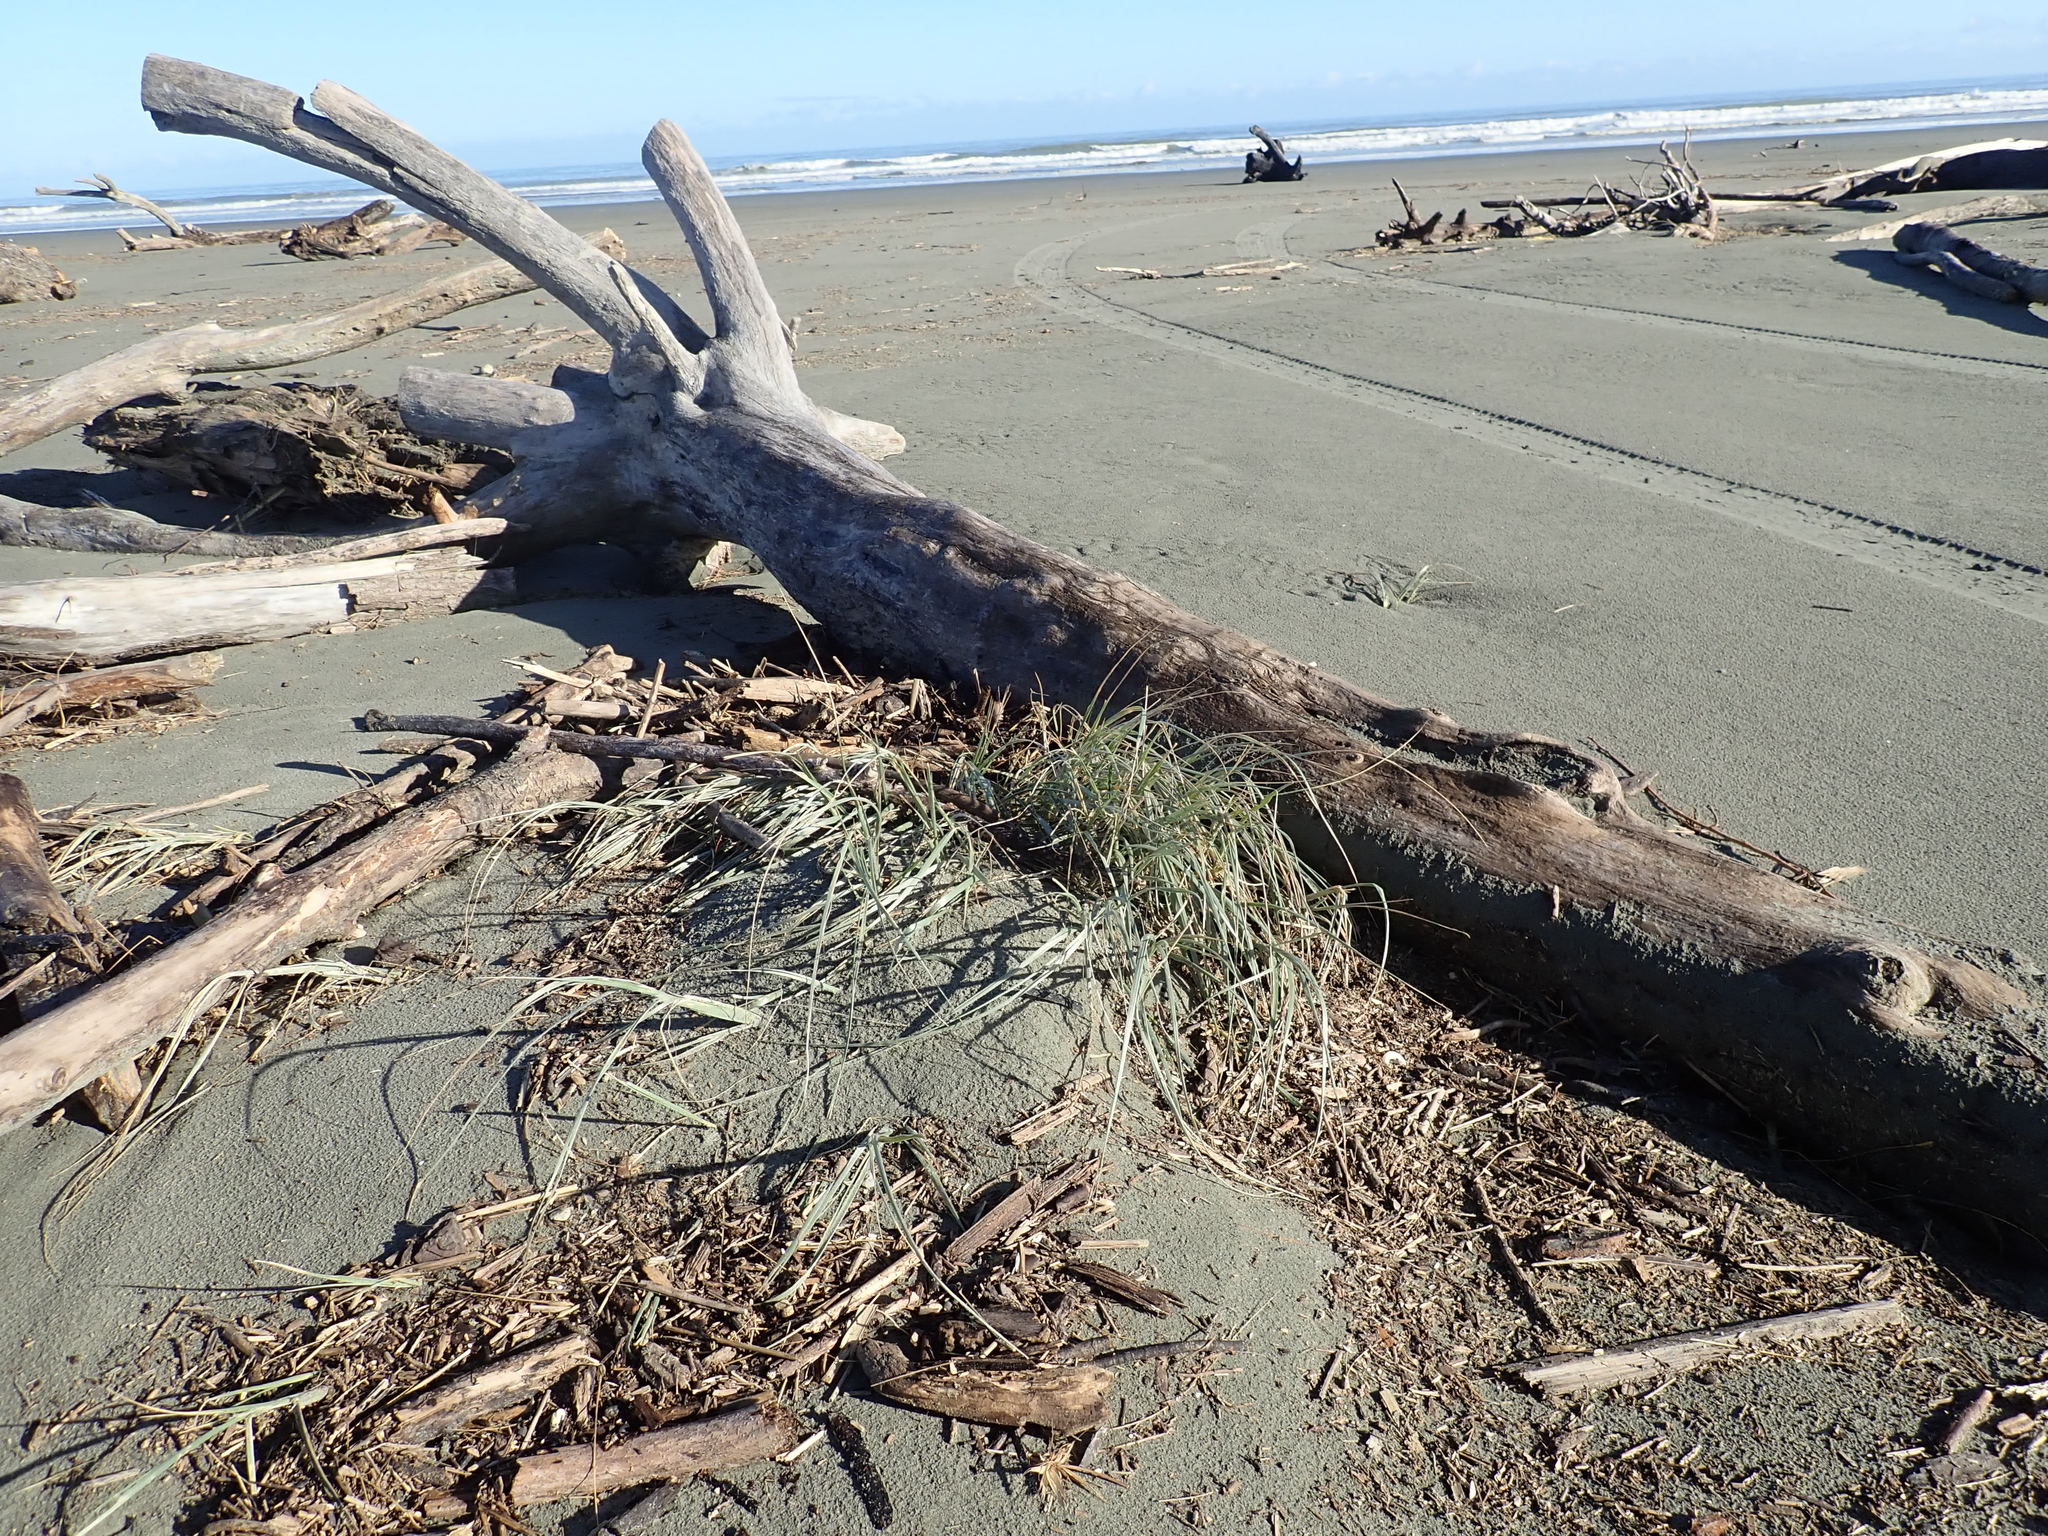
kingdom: Plantae
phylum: Tracheophyta
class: Liliopsida
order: Poales
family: Poaceae
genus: Spinifex
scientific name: Spinifex sericeus
